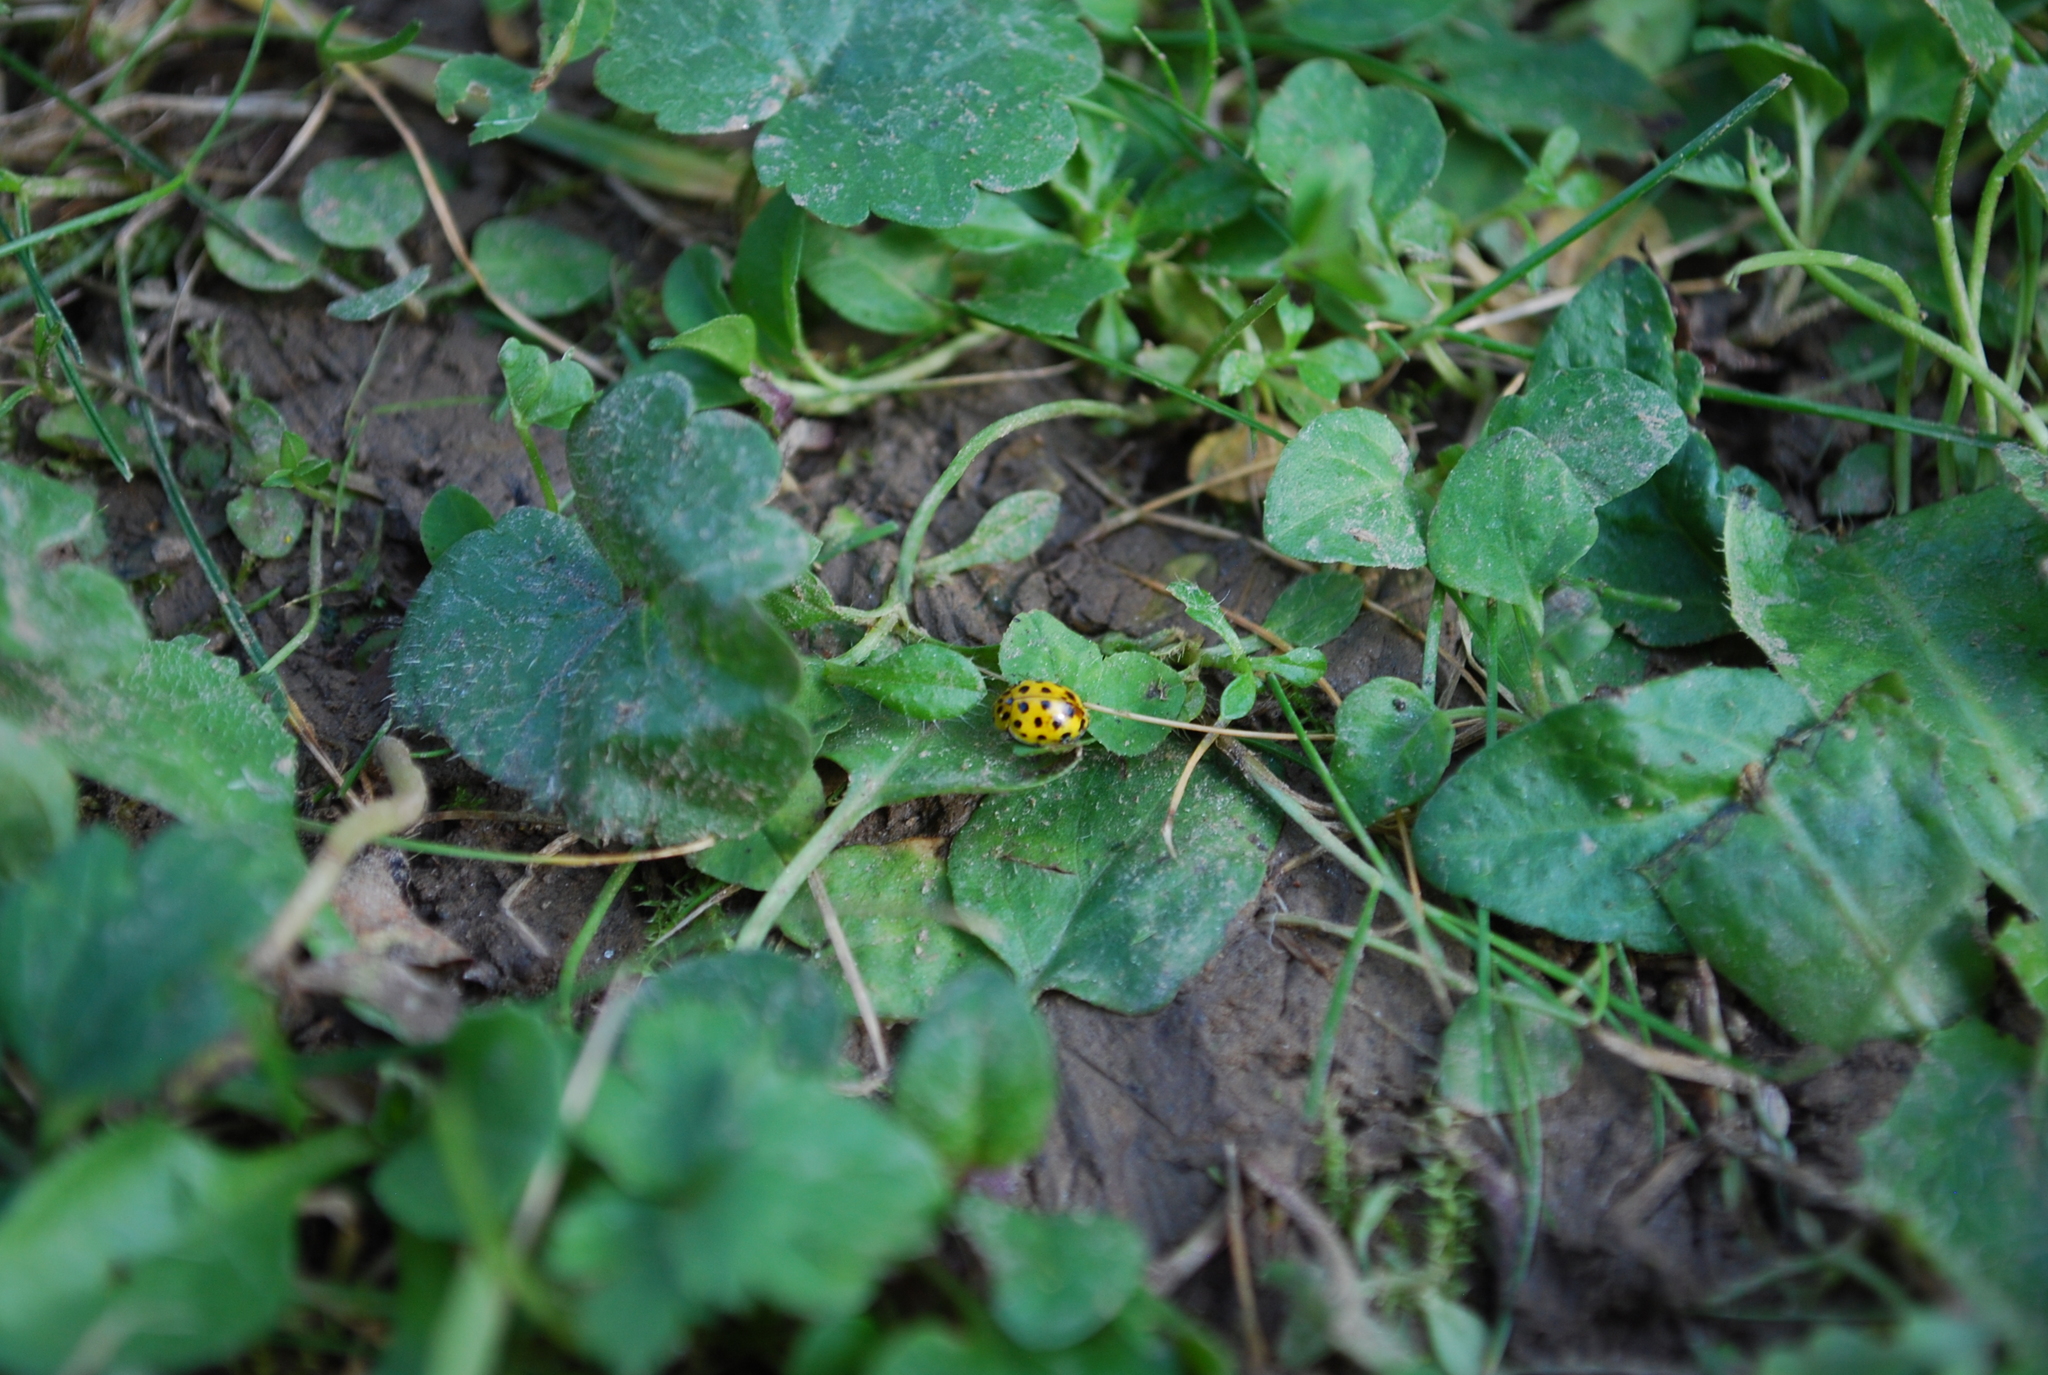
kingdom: Animalia
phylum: Arthropoda
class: Insecta
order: Coleoptera
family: Coccinellidae
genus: Psyllobora
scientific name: Psyllobora vigintiduopunctata
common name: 22-spot ladybird
